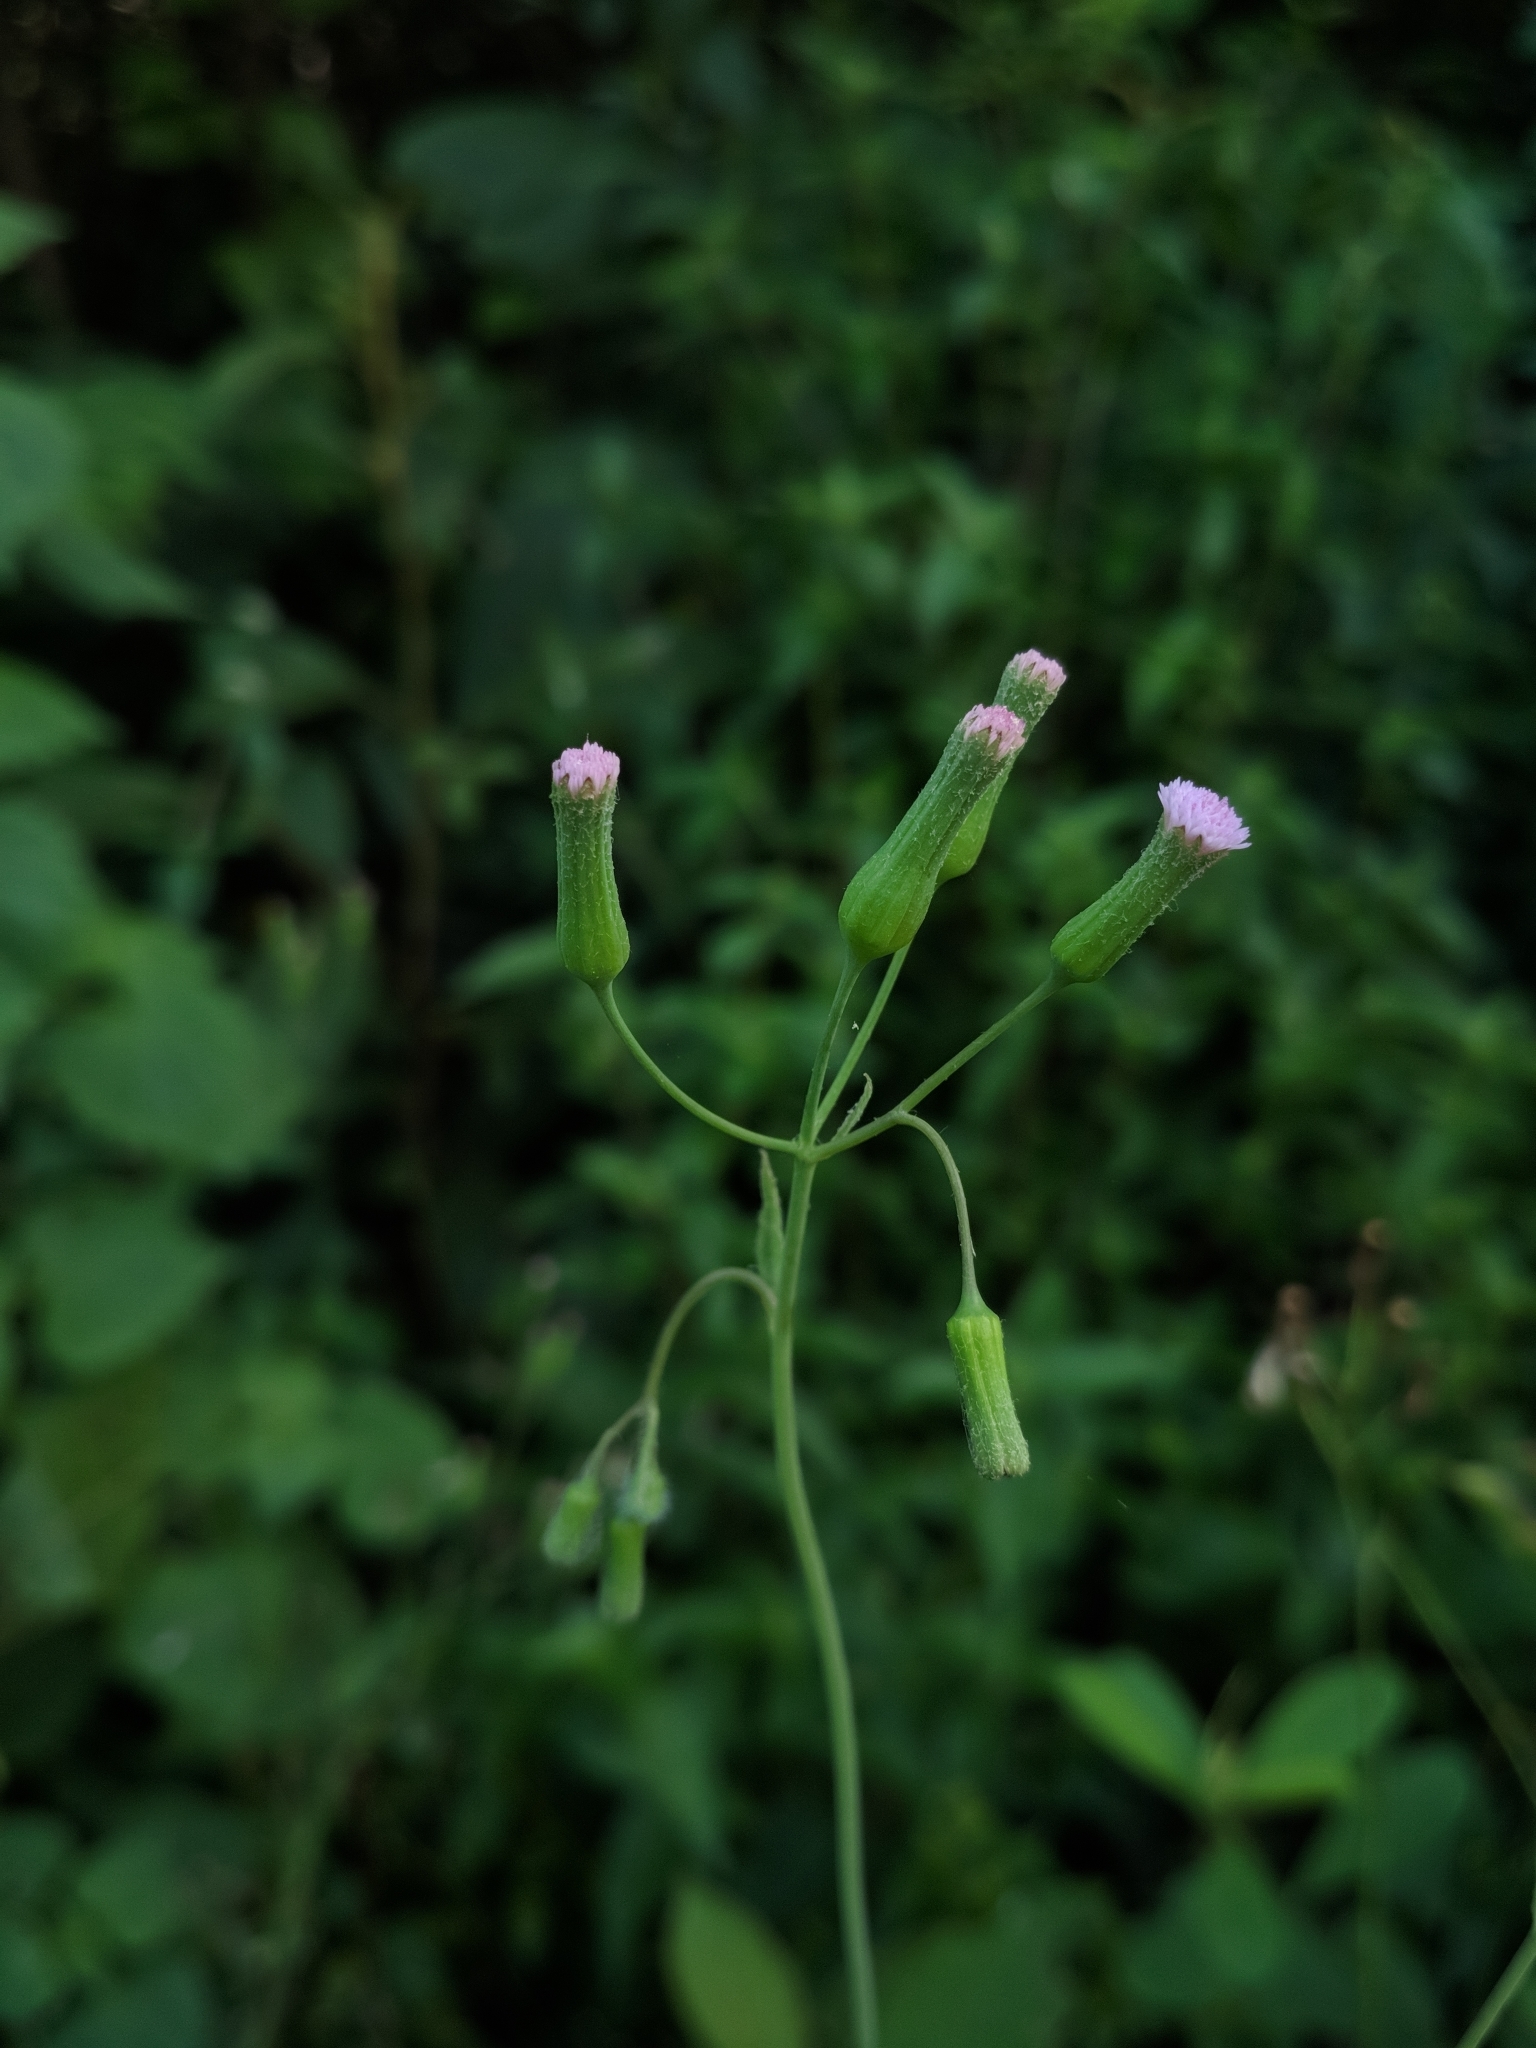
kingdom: Plantae
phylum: Tracheophyta
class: Magnoliopsida
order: Asterales
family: Asteraceae
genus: Emilia
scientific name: Emilia sonchifolia
